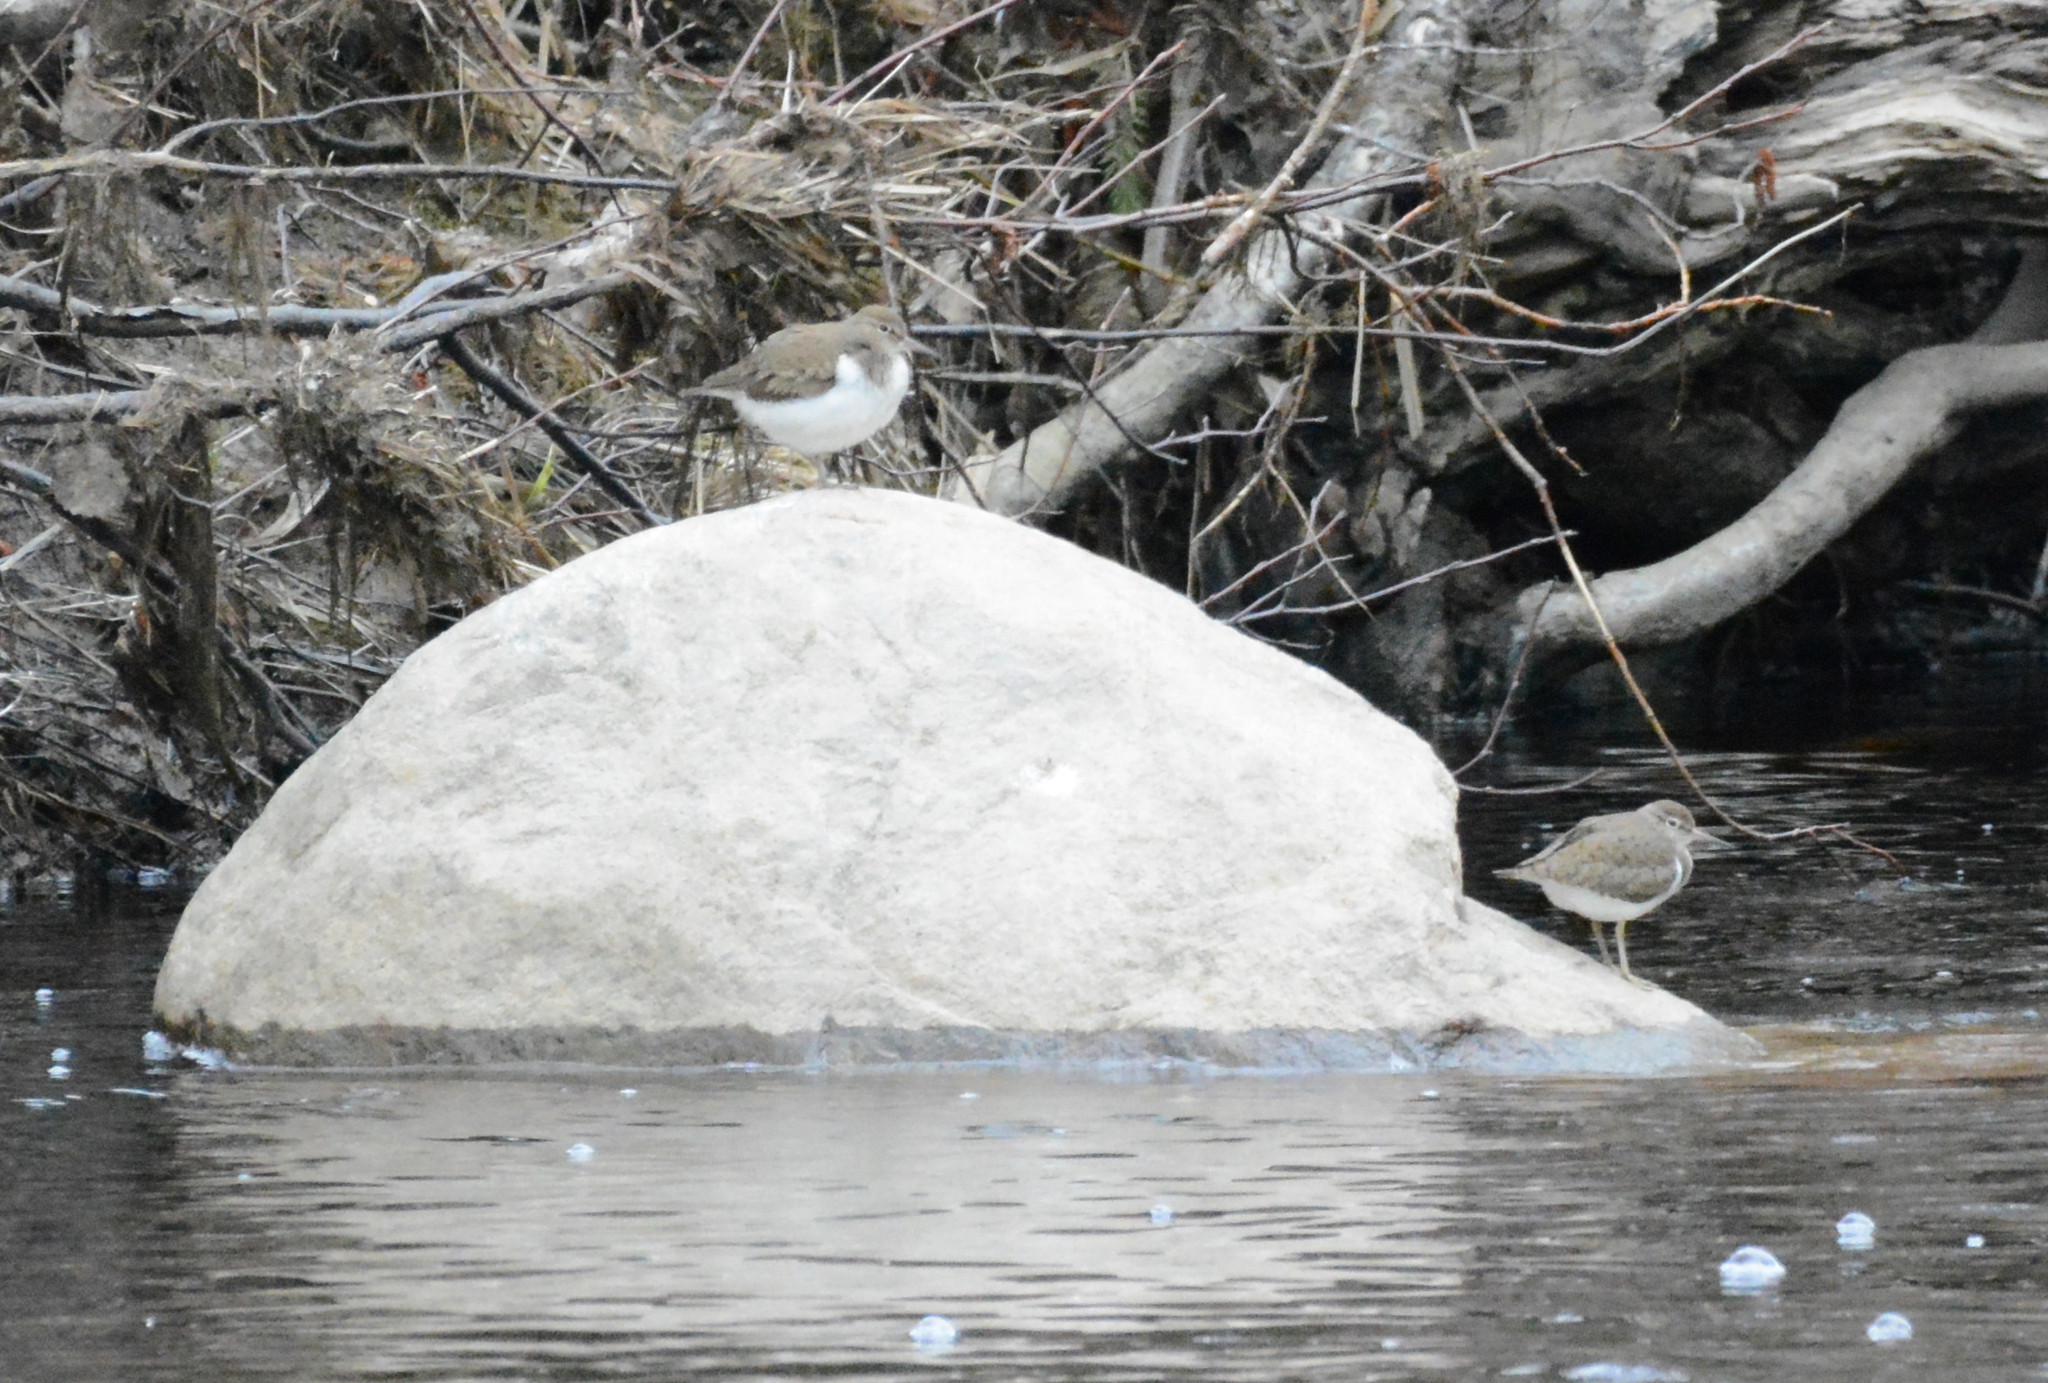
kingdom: Animalia
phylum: Chordata
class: Aves
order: Charadriiformes
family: Scolopacidae
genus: Actitis
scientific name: Actitis hypoleucos
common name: Common sandpiper
